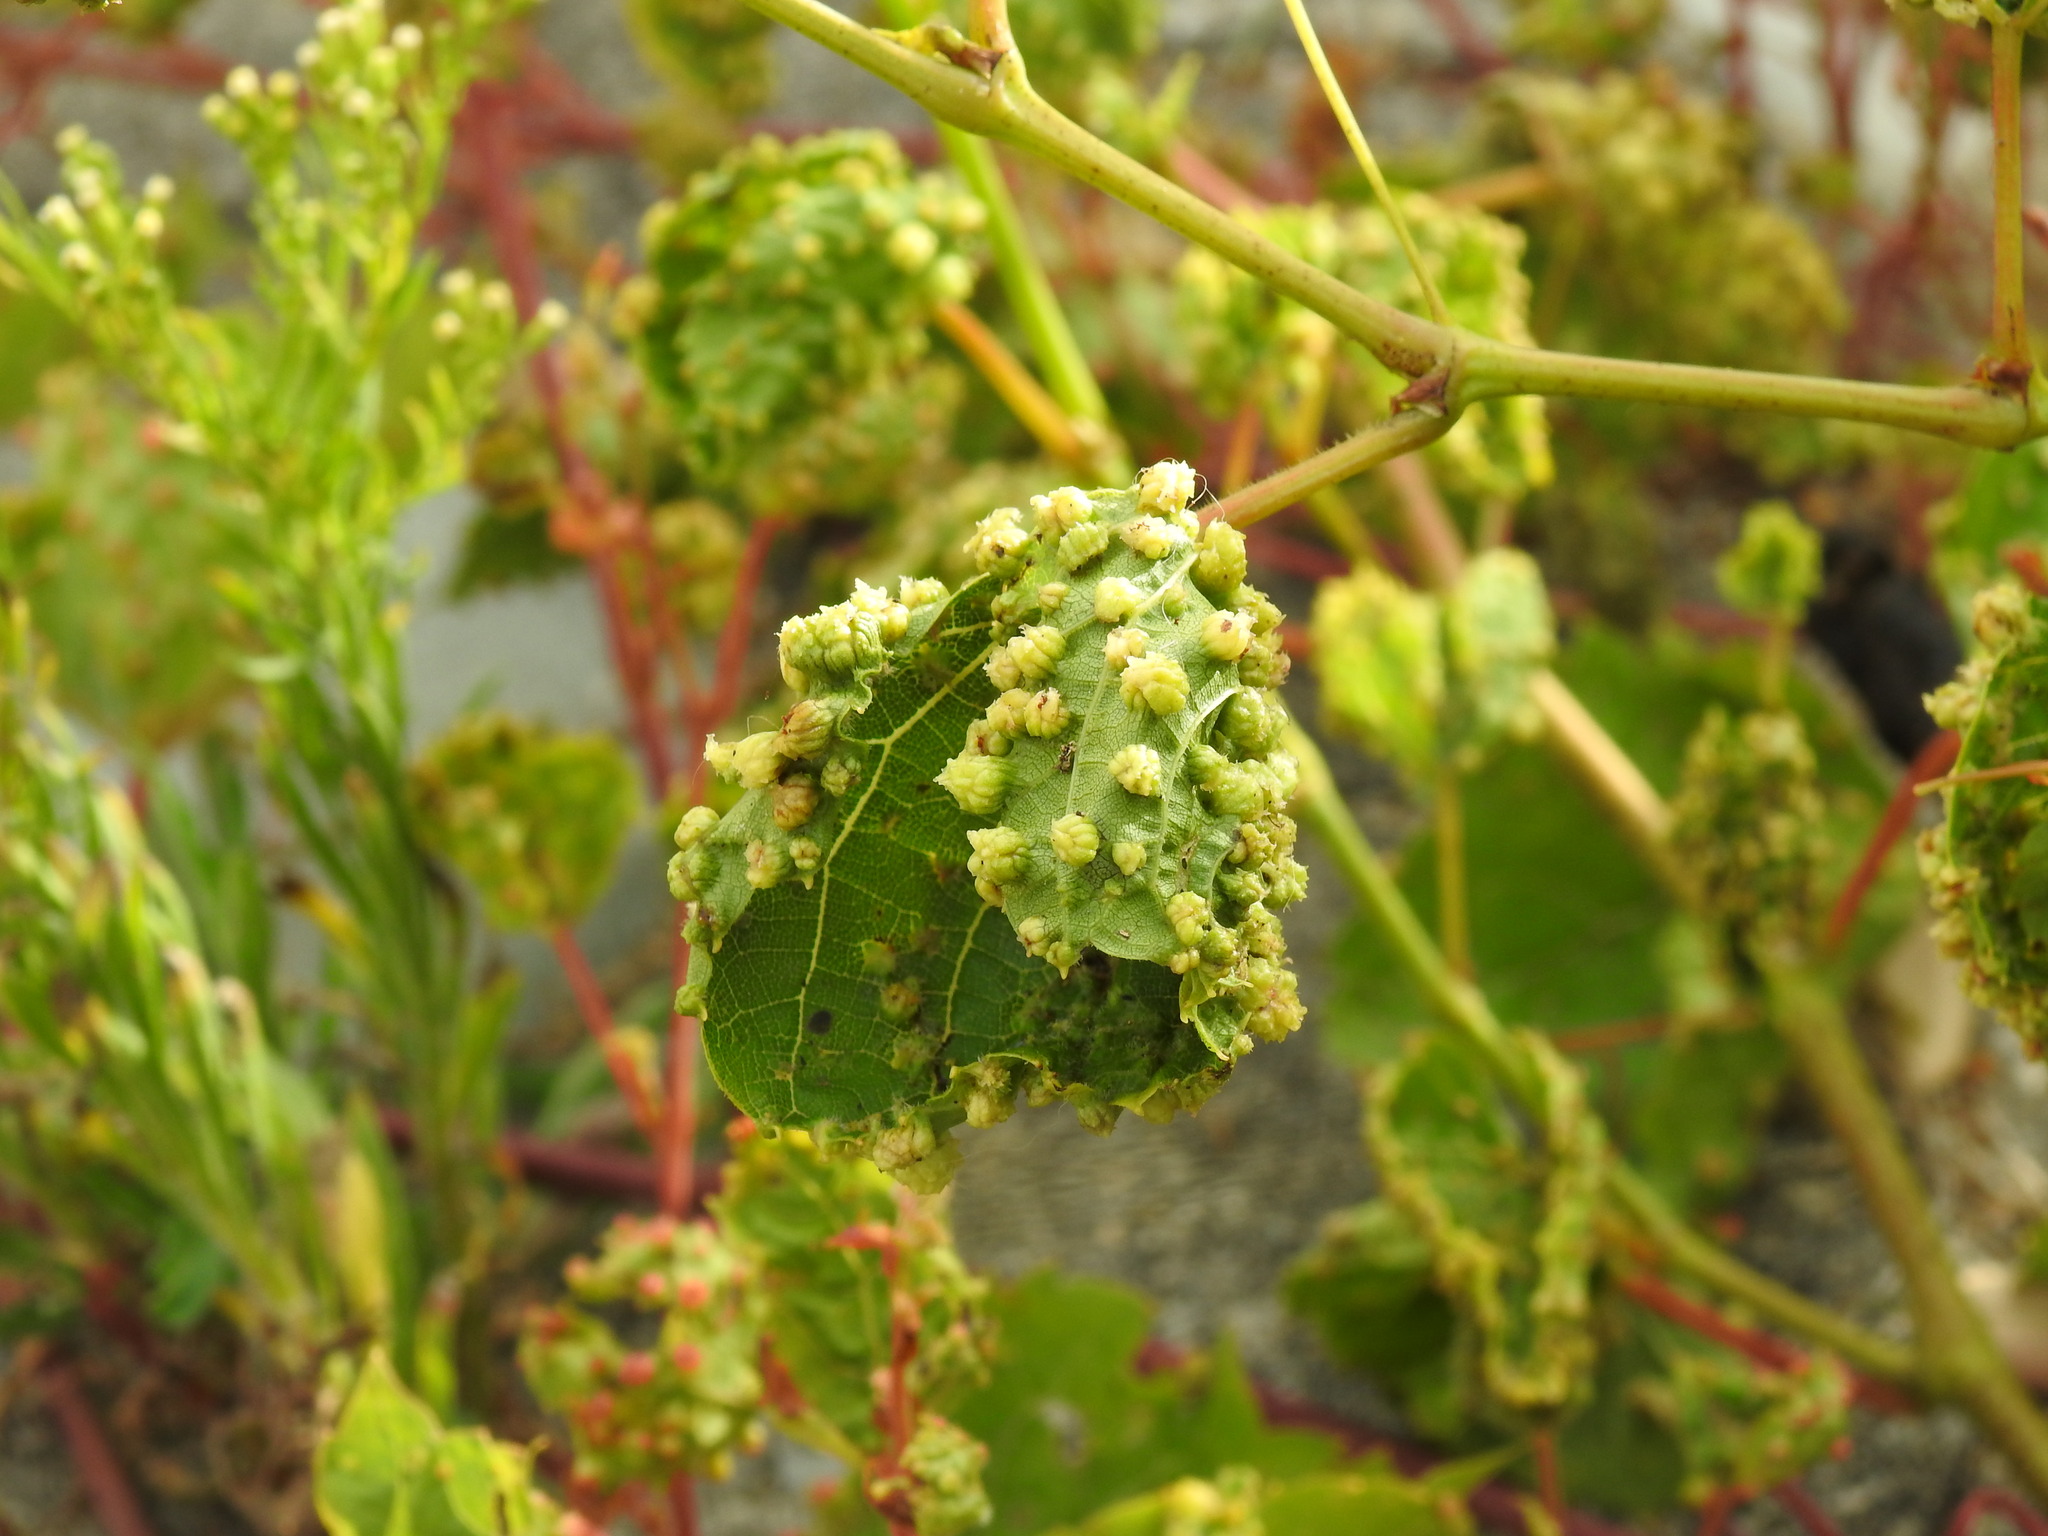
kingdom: Animalia
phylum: Arthropoda
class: Insecta
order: Hemiptera
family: Phylloxeridae
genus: Daktulosphaira
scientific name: Daktulosphaira vitifoliae
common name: Grape phylloxera
